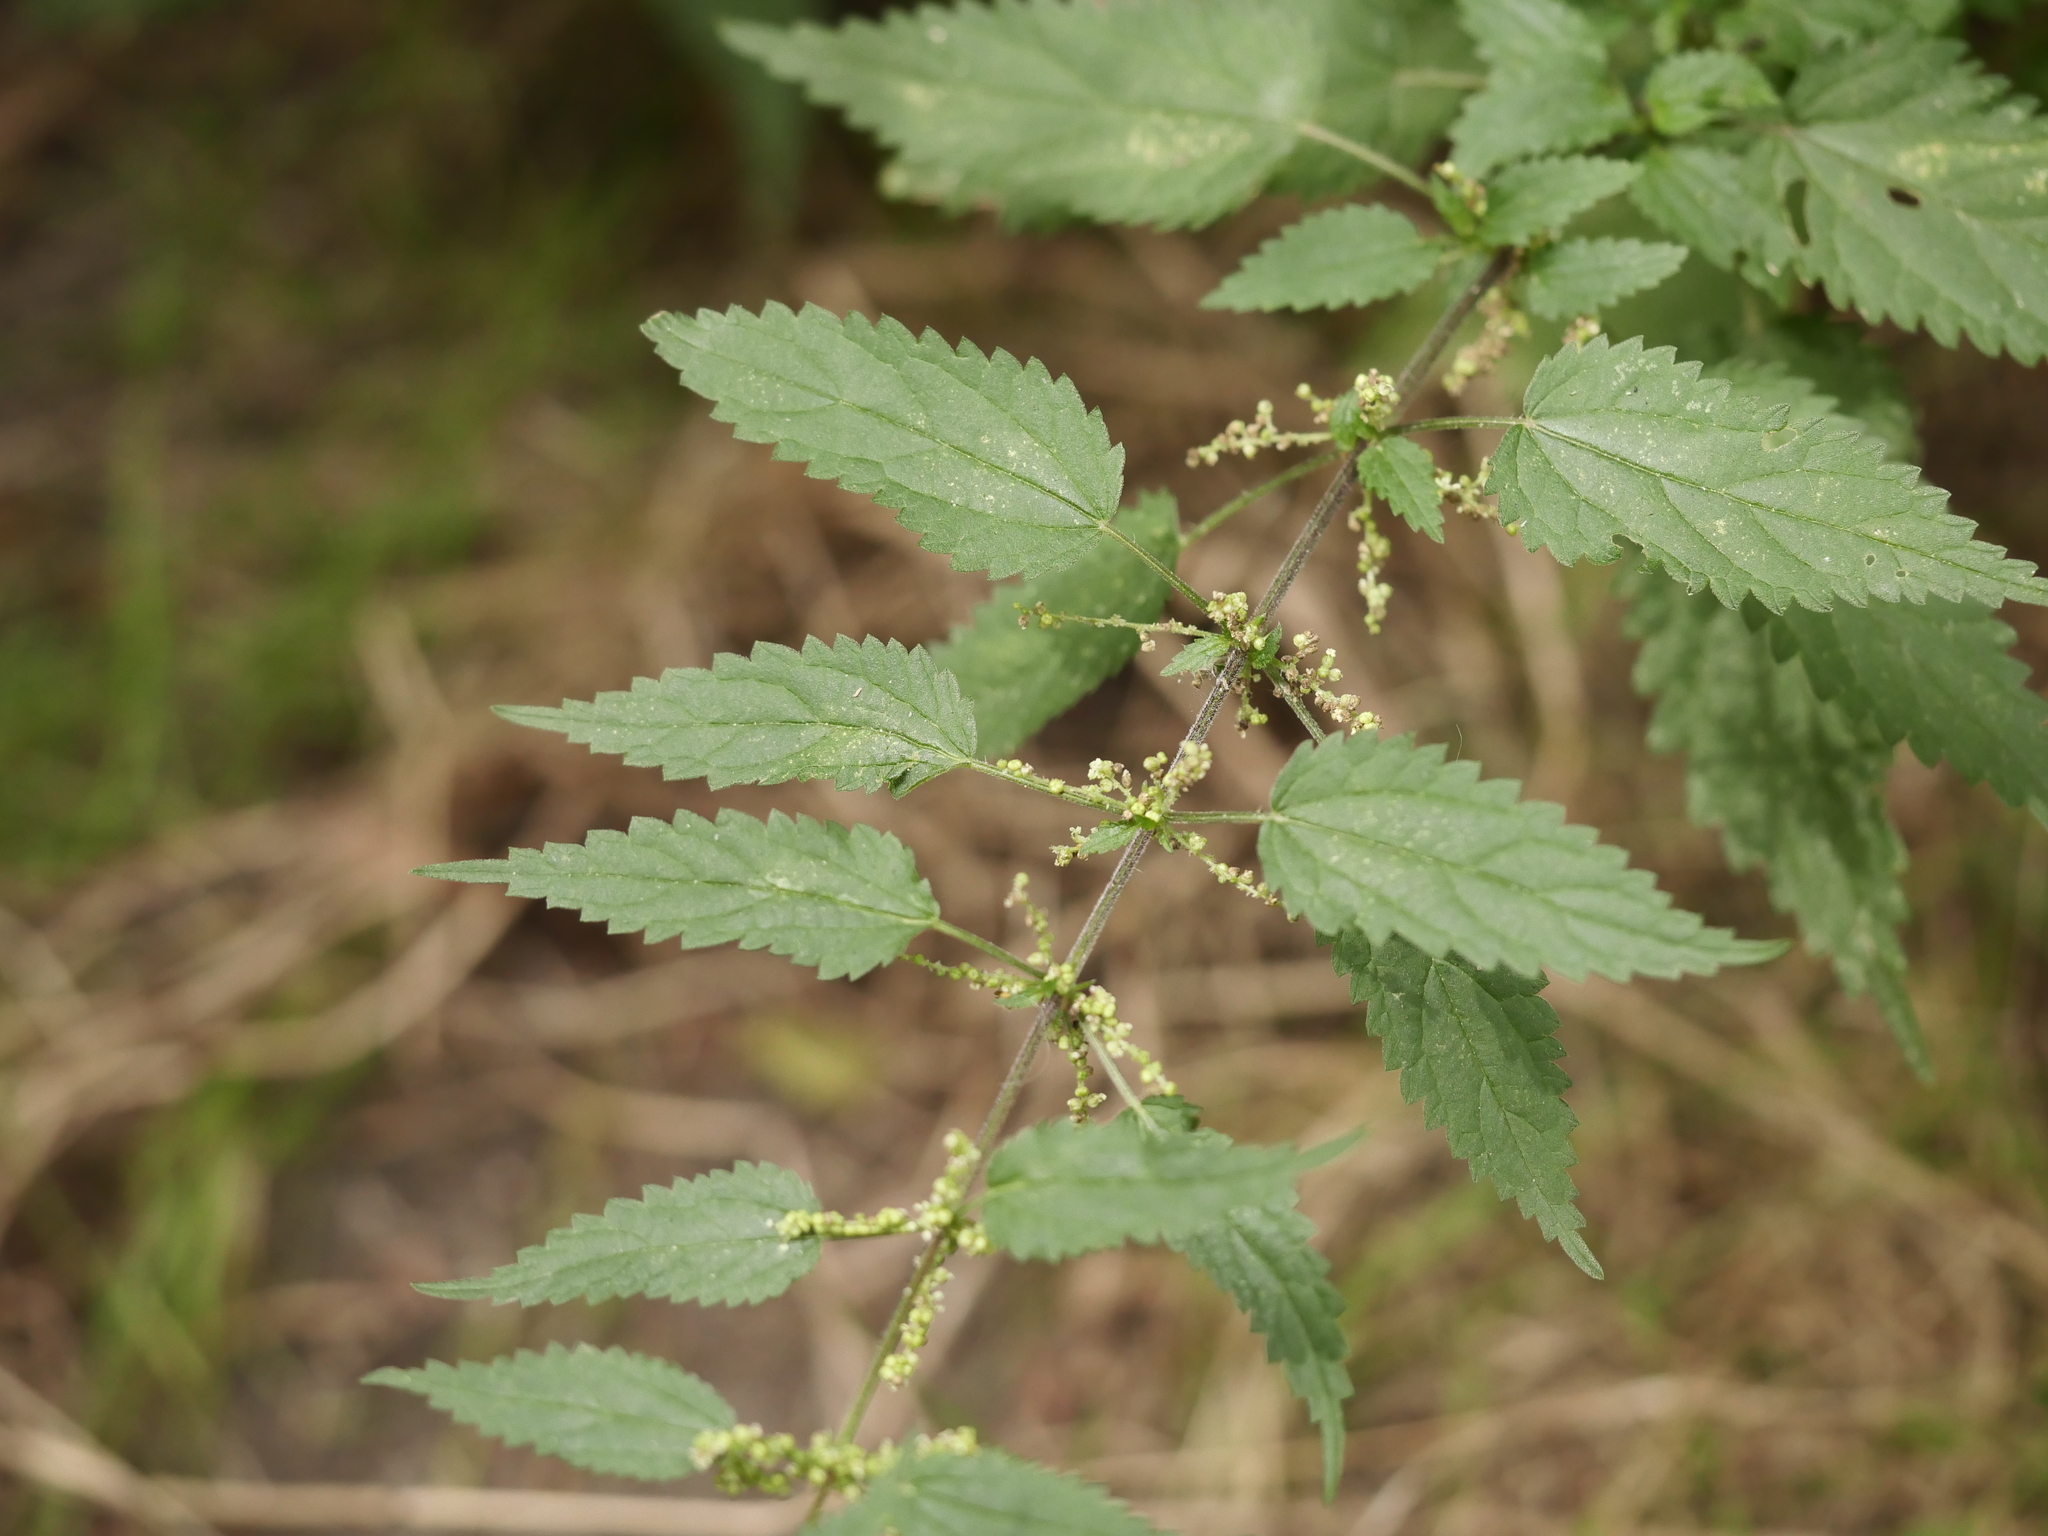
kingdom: Plantae
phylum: Tracheophyta
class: Magnoliopsida
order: Rosales
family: Urticaceae
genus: Urtica
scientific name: Urtica dioica
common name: Common nettle
